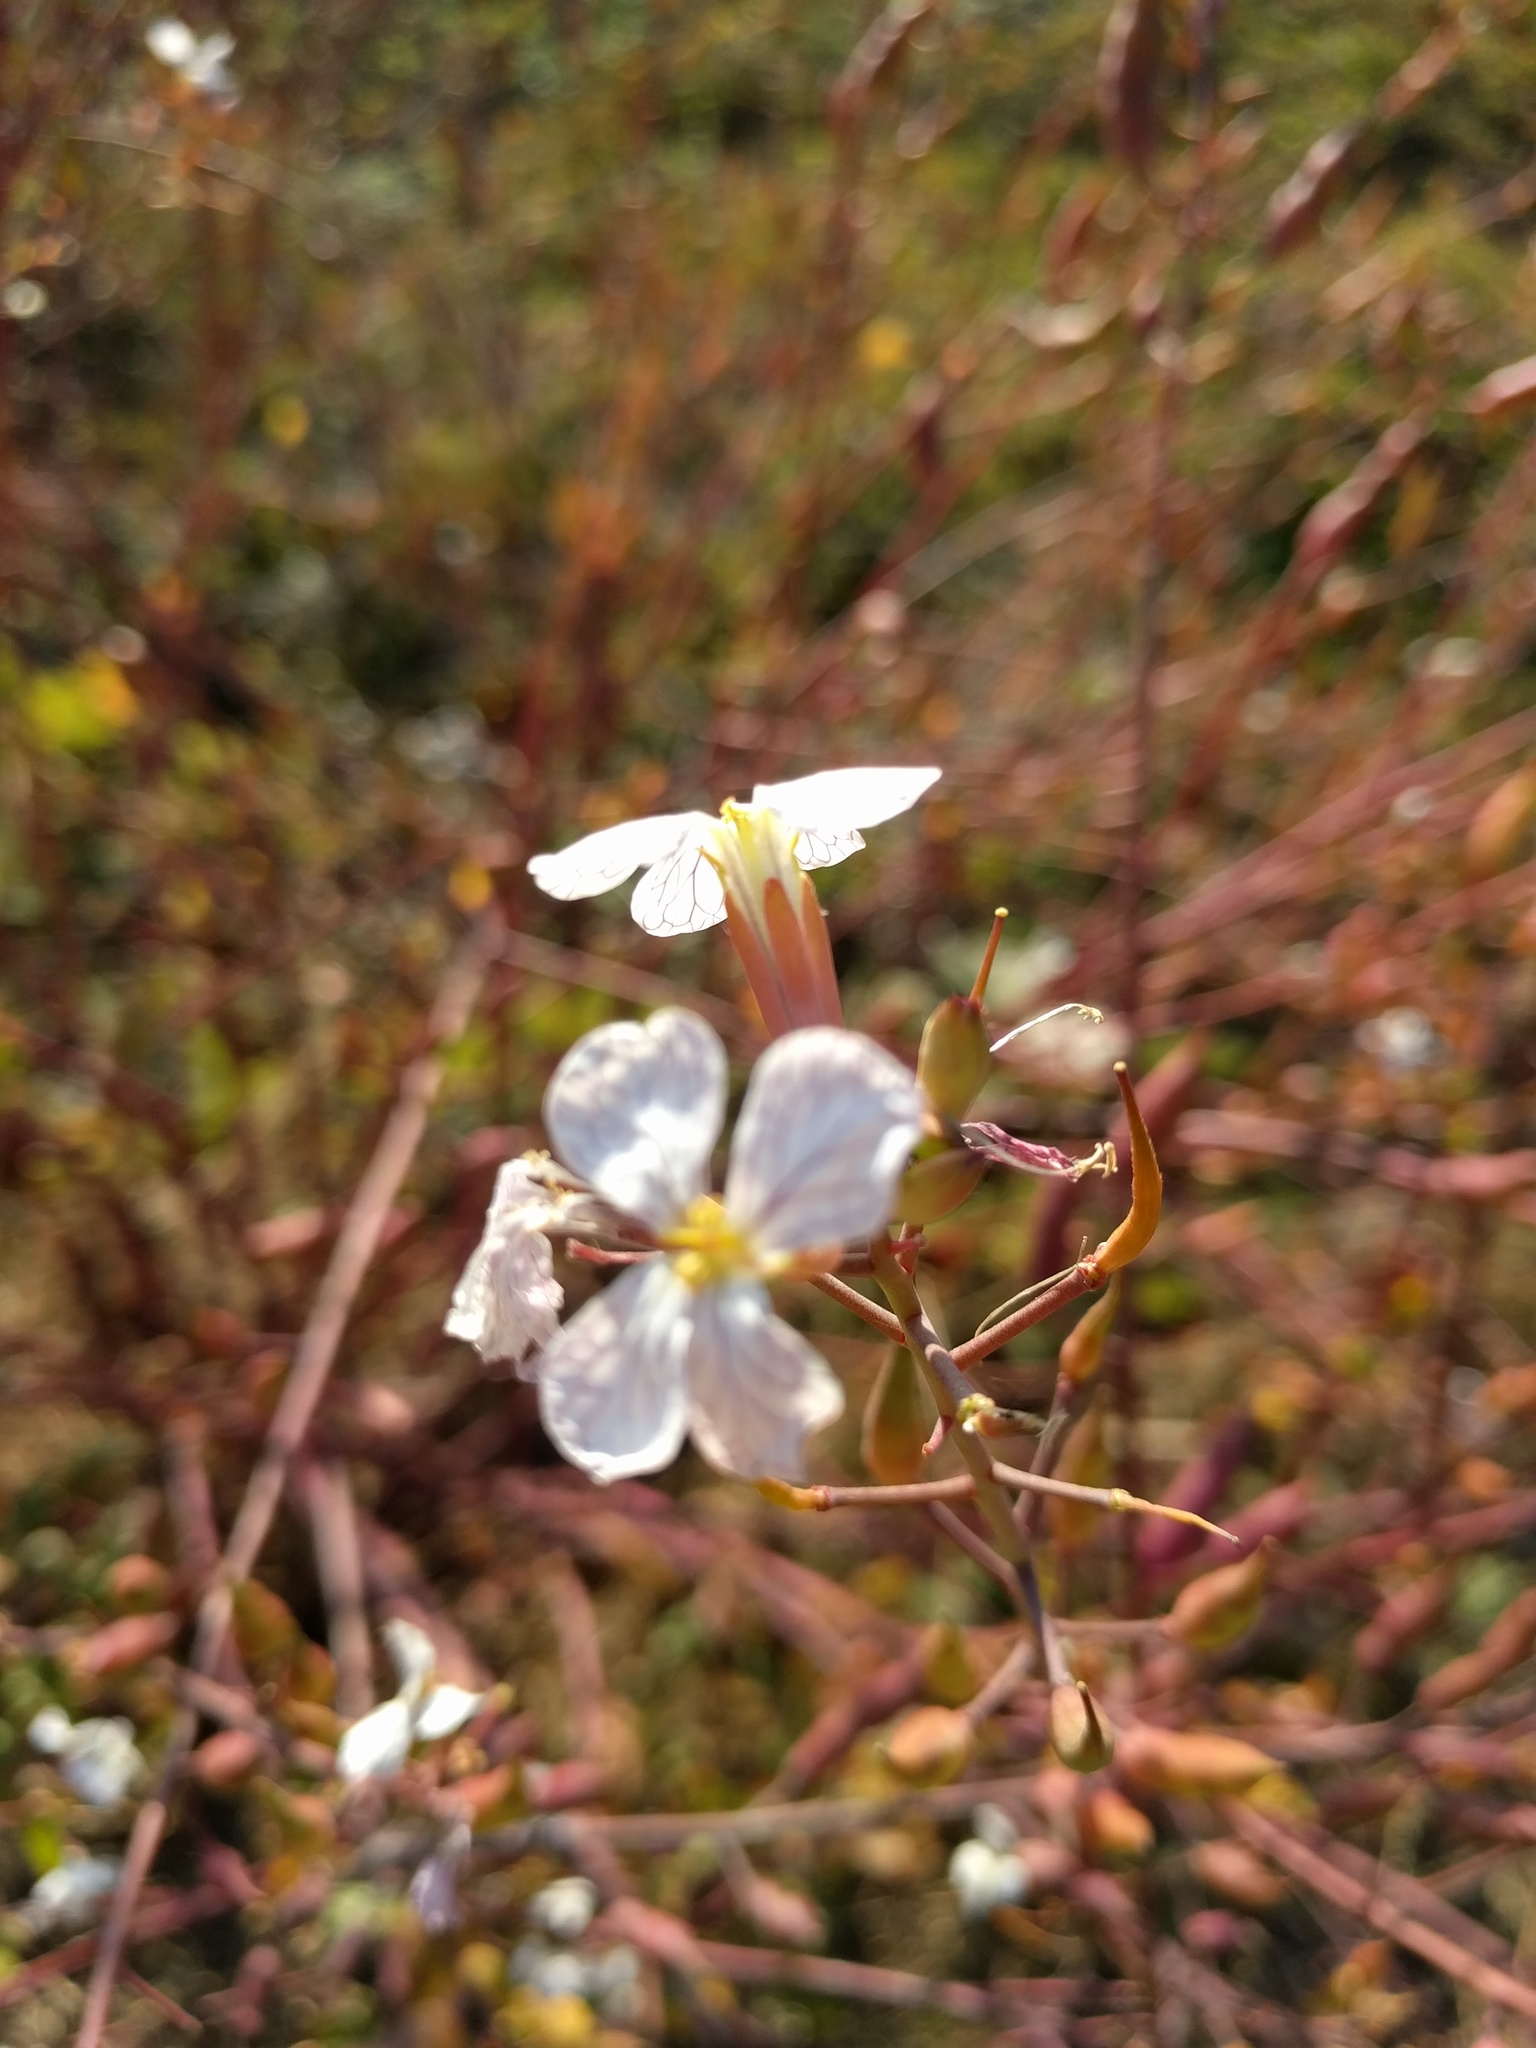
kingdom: Plantae
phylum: Tracheophyta
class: Magnoliopsida
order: Brassicales
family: Brassicaceae
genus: Raphanus
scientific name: Raphanus sativus
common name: Cultivated radish
